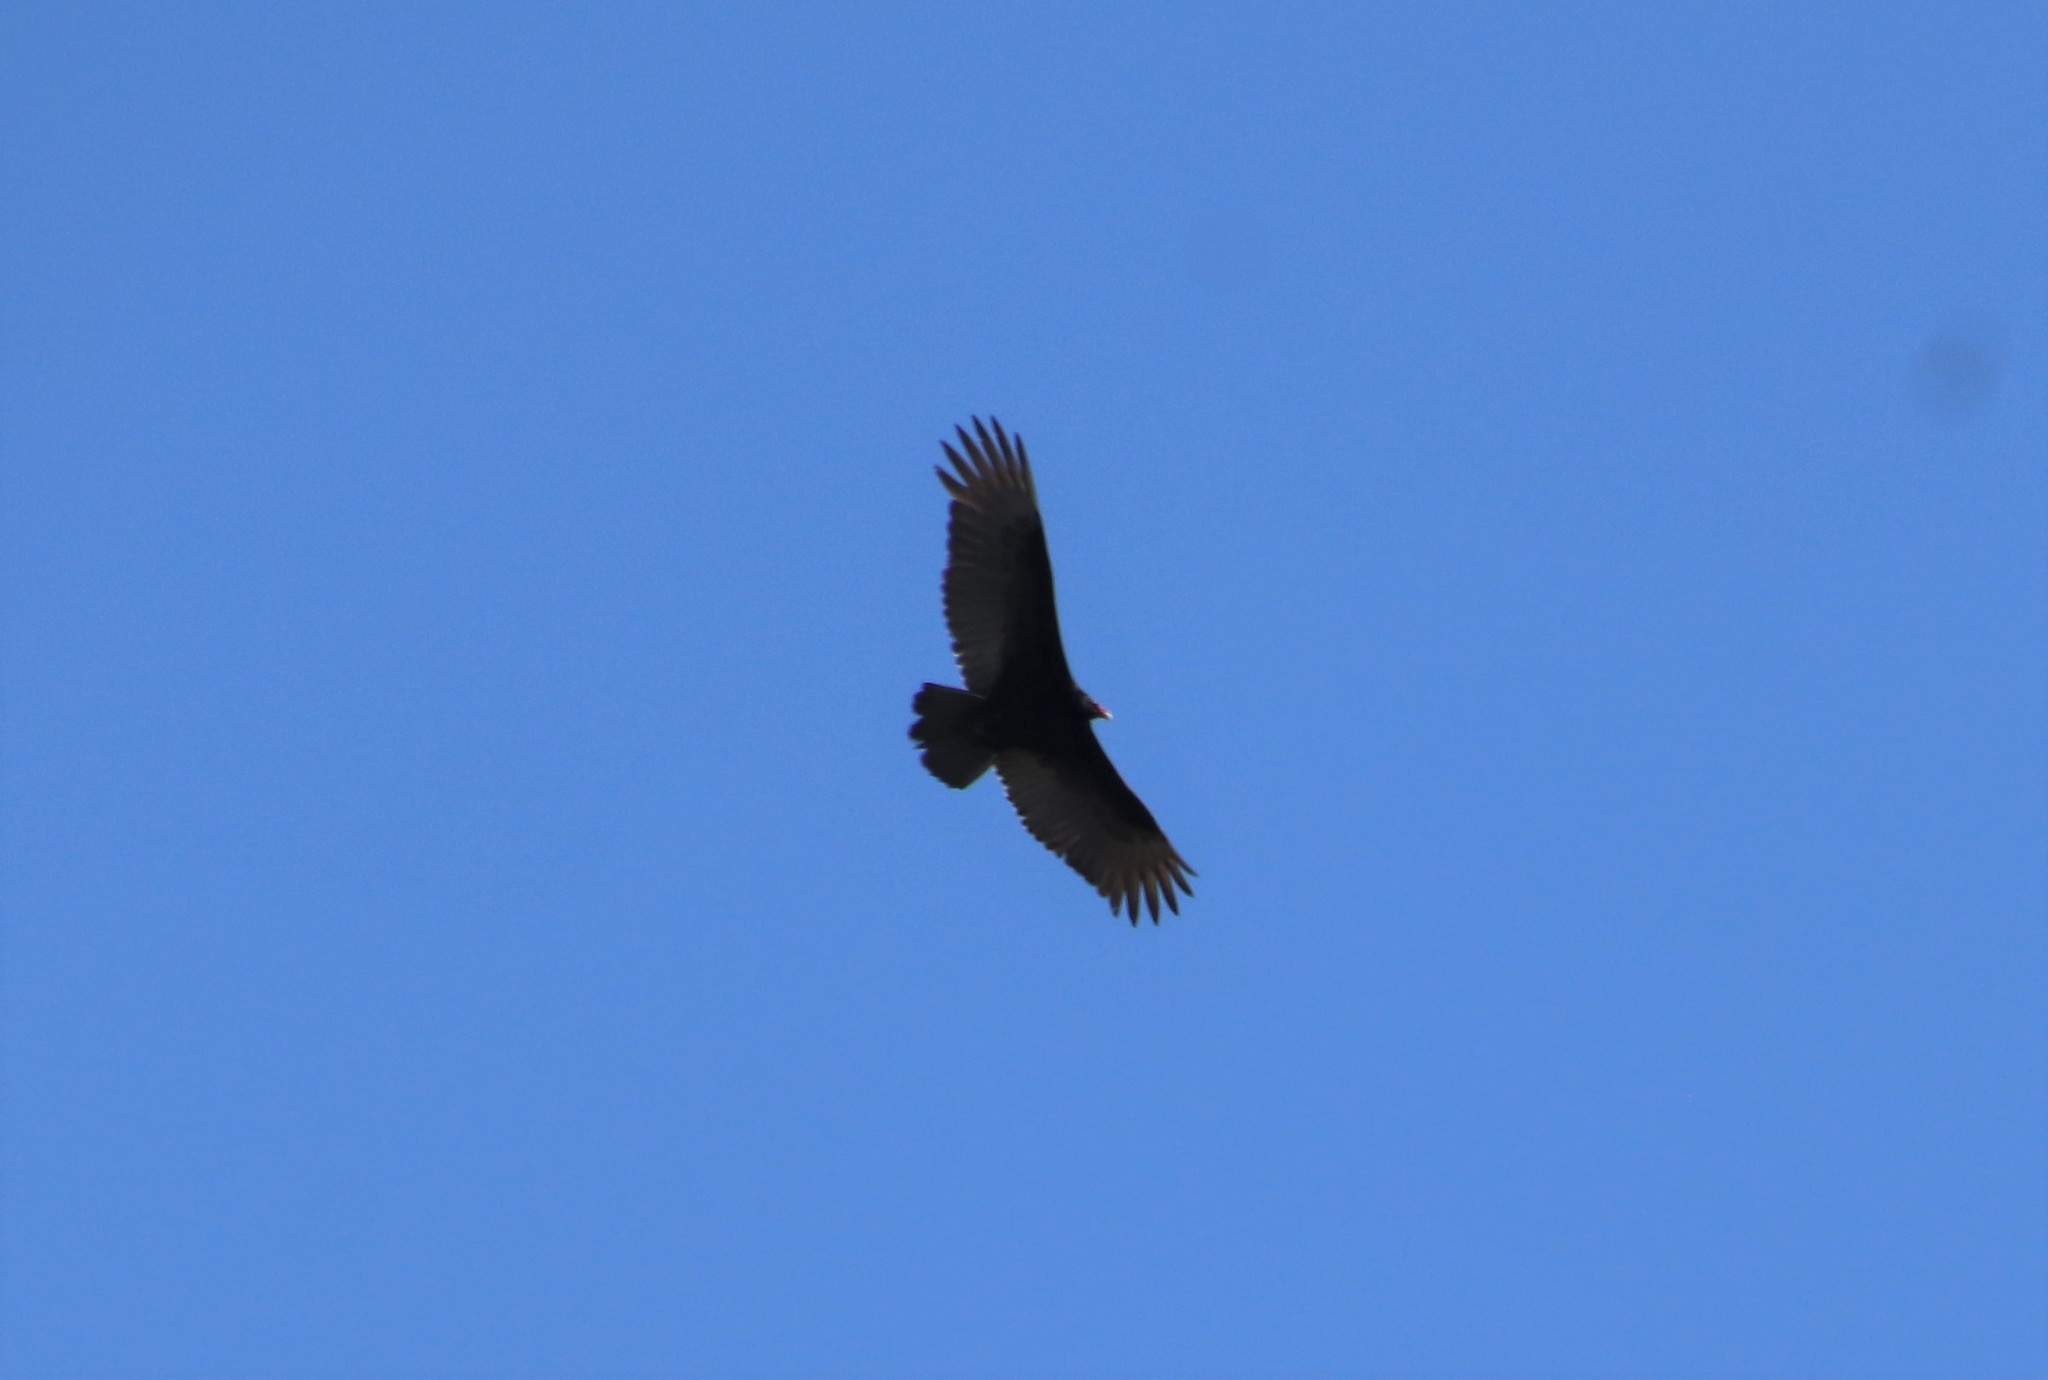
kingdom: Animalia
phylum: Chordata
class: Aves
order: Accipitriformes
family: Cathartidae
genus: Cathartes
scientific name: Cathartes aura
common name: Turkey vulture
